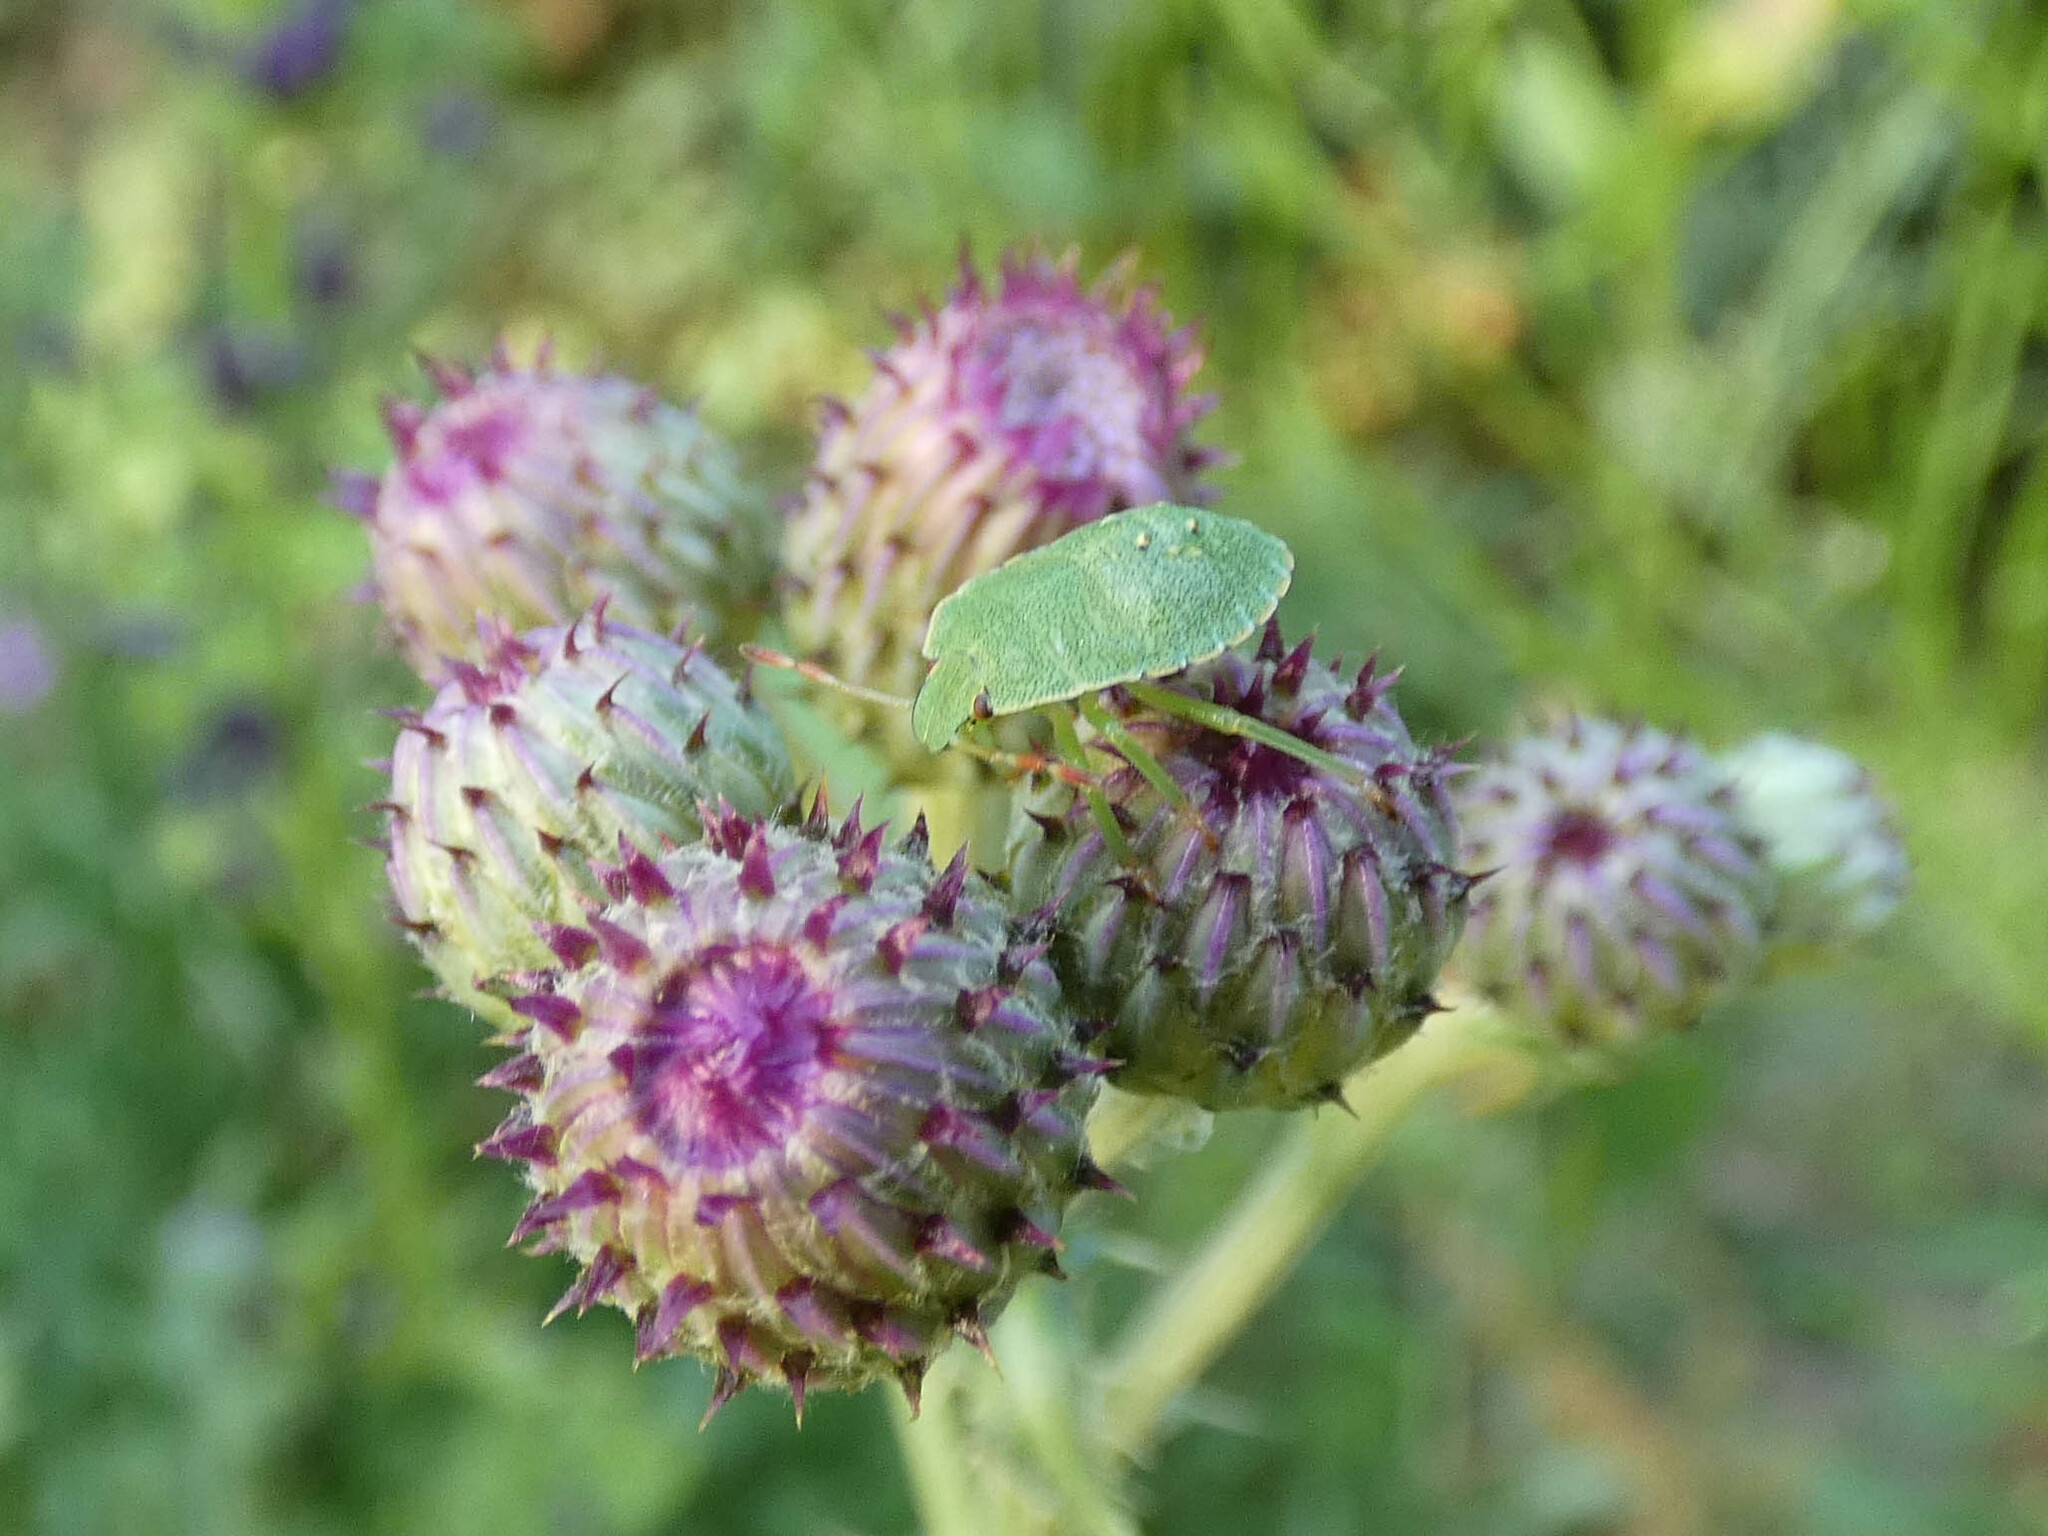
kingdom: Animalia
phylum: Arthropoda
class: Insecta
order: Hemiptera
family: Pentatomidae
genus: Palomena
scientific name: Palomena prasina
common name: Green shieldbug
